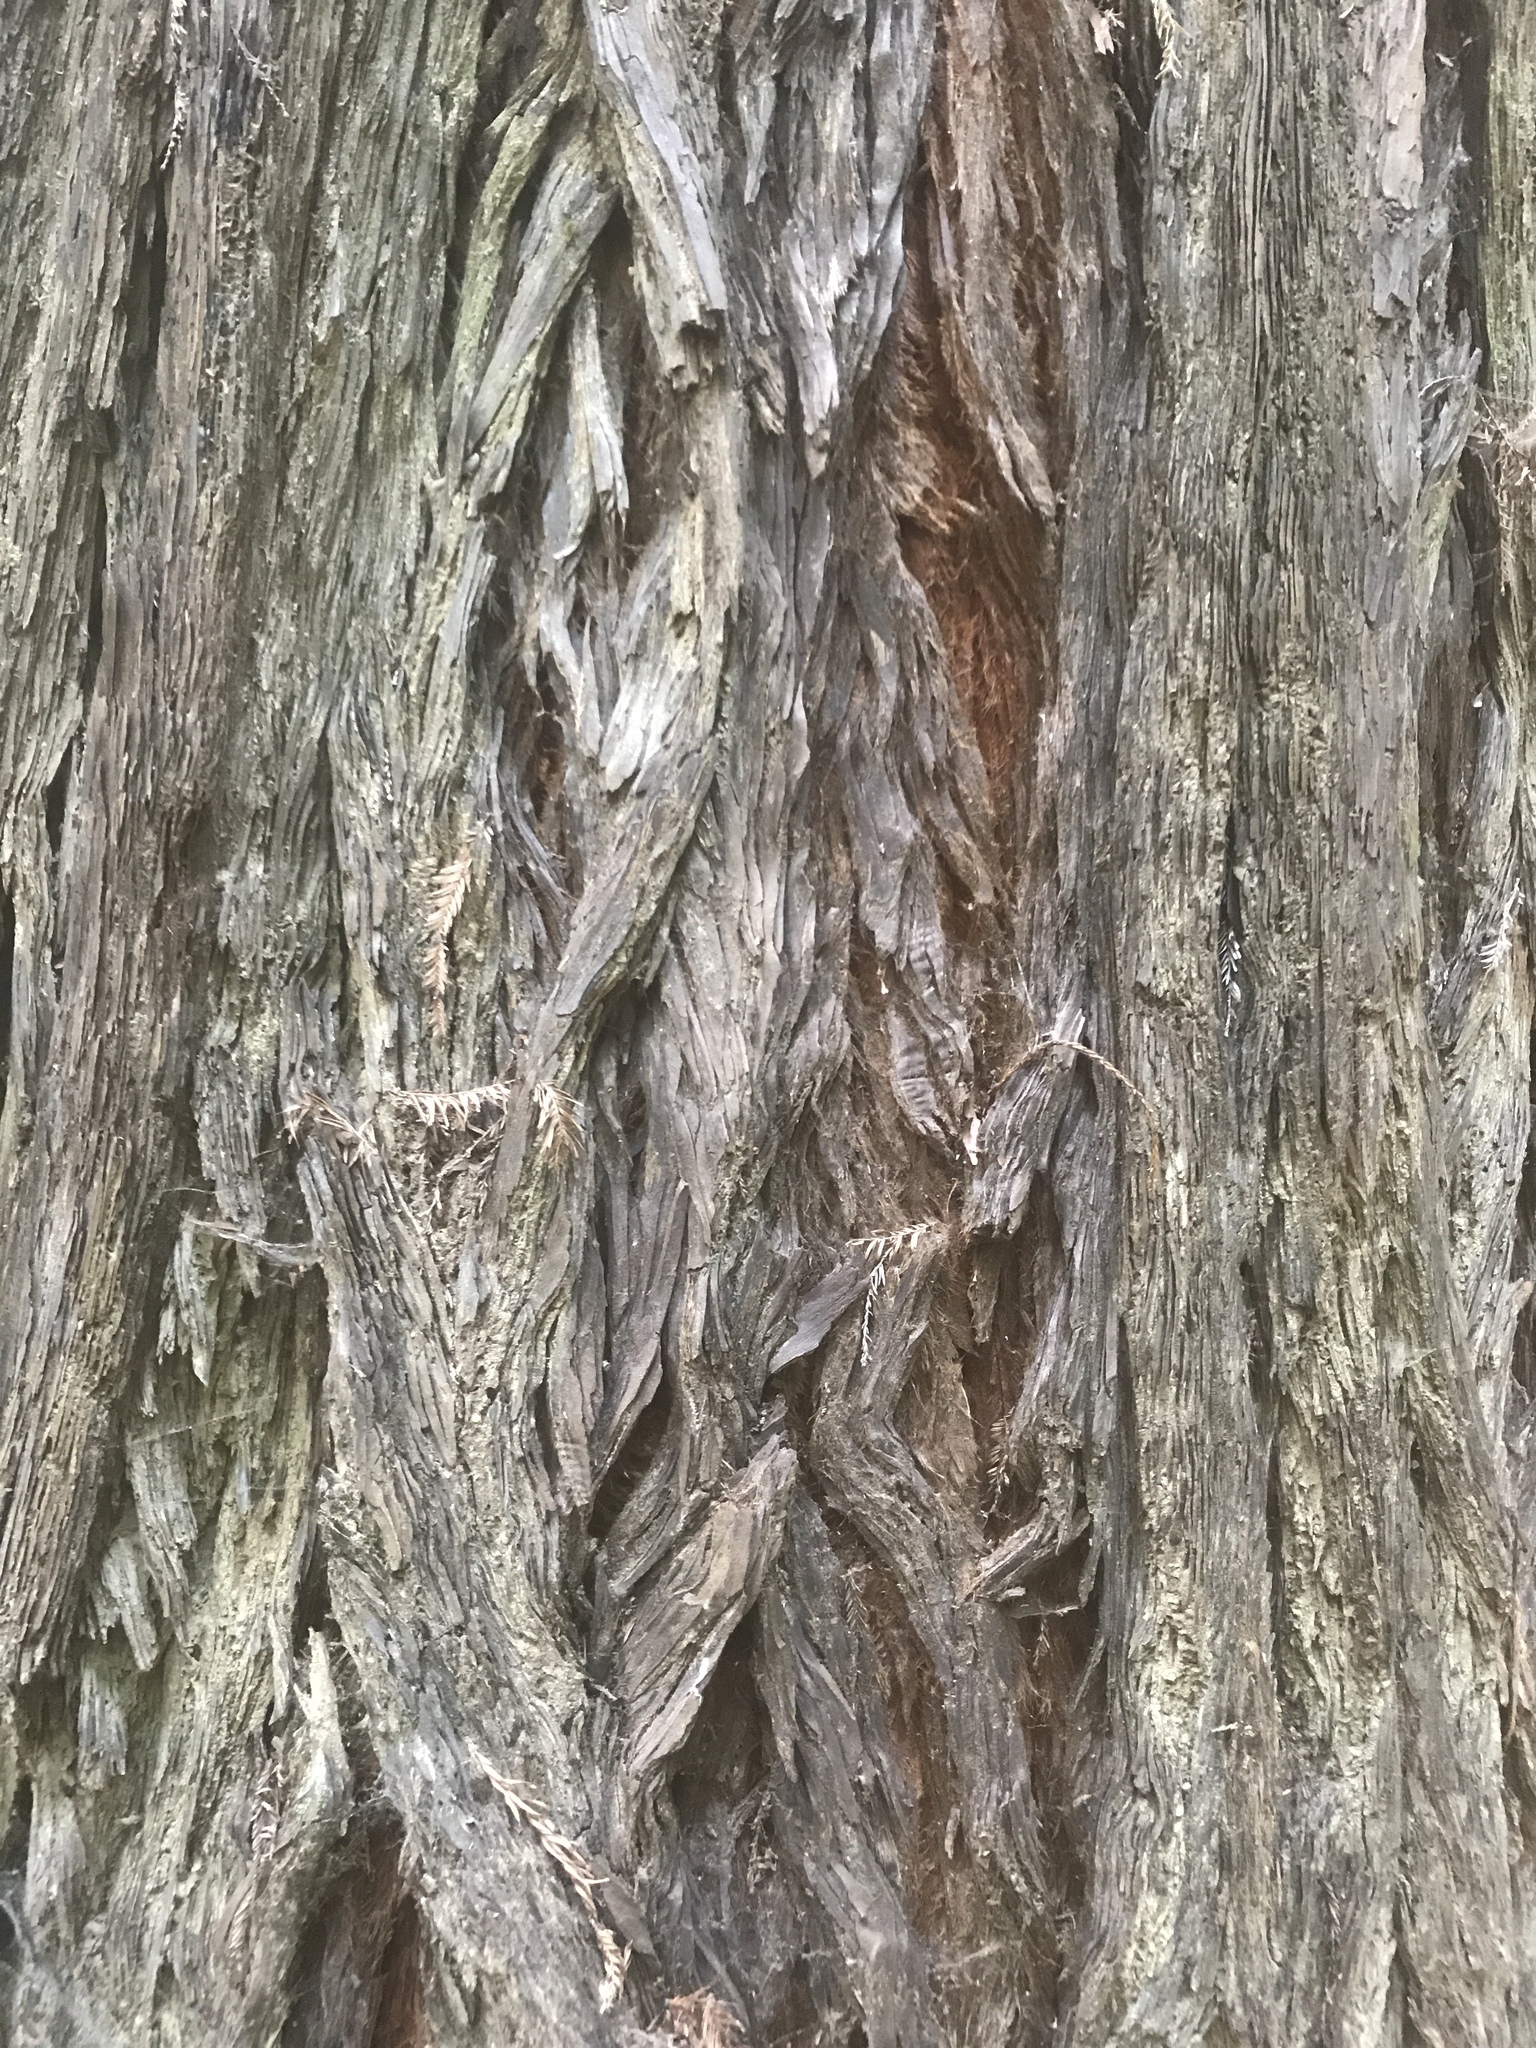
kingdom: Plantae
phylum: Tracheophyta
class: Pinopsida
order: Pinales
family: Cupressaceae
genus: Sequoia
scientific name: Sequoia sempervirens
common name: Coast redwood
